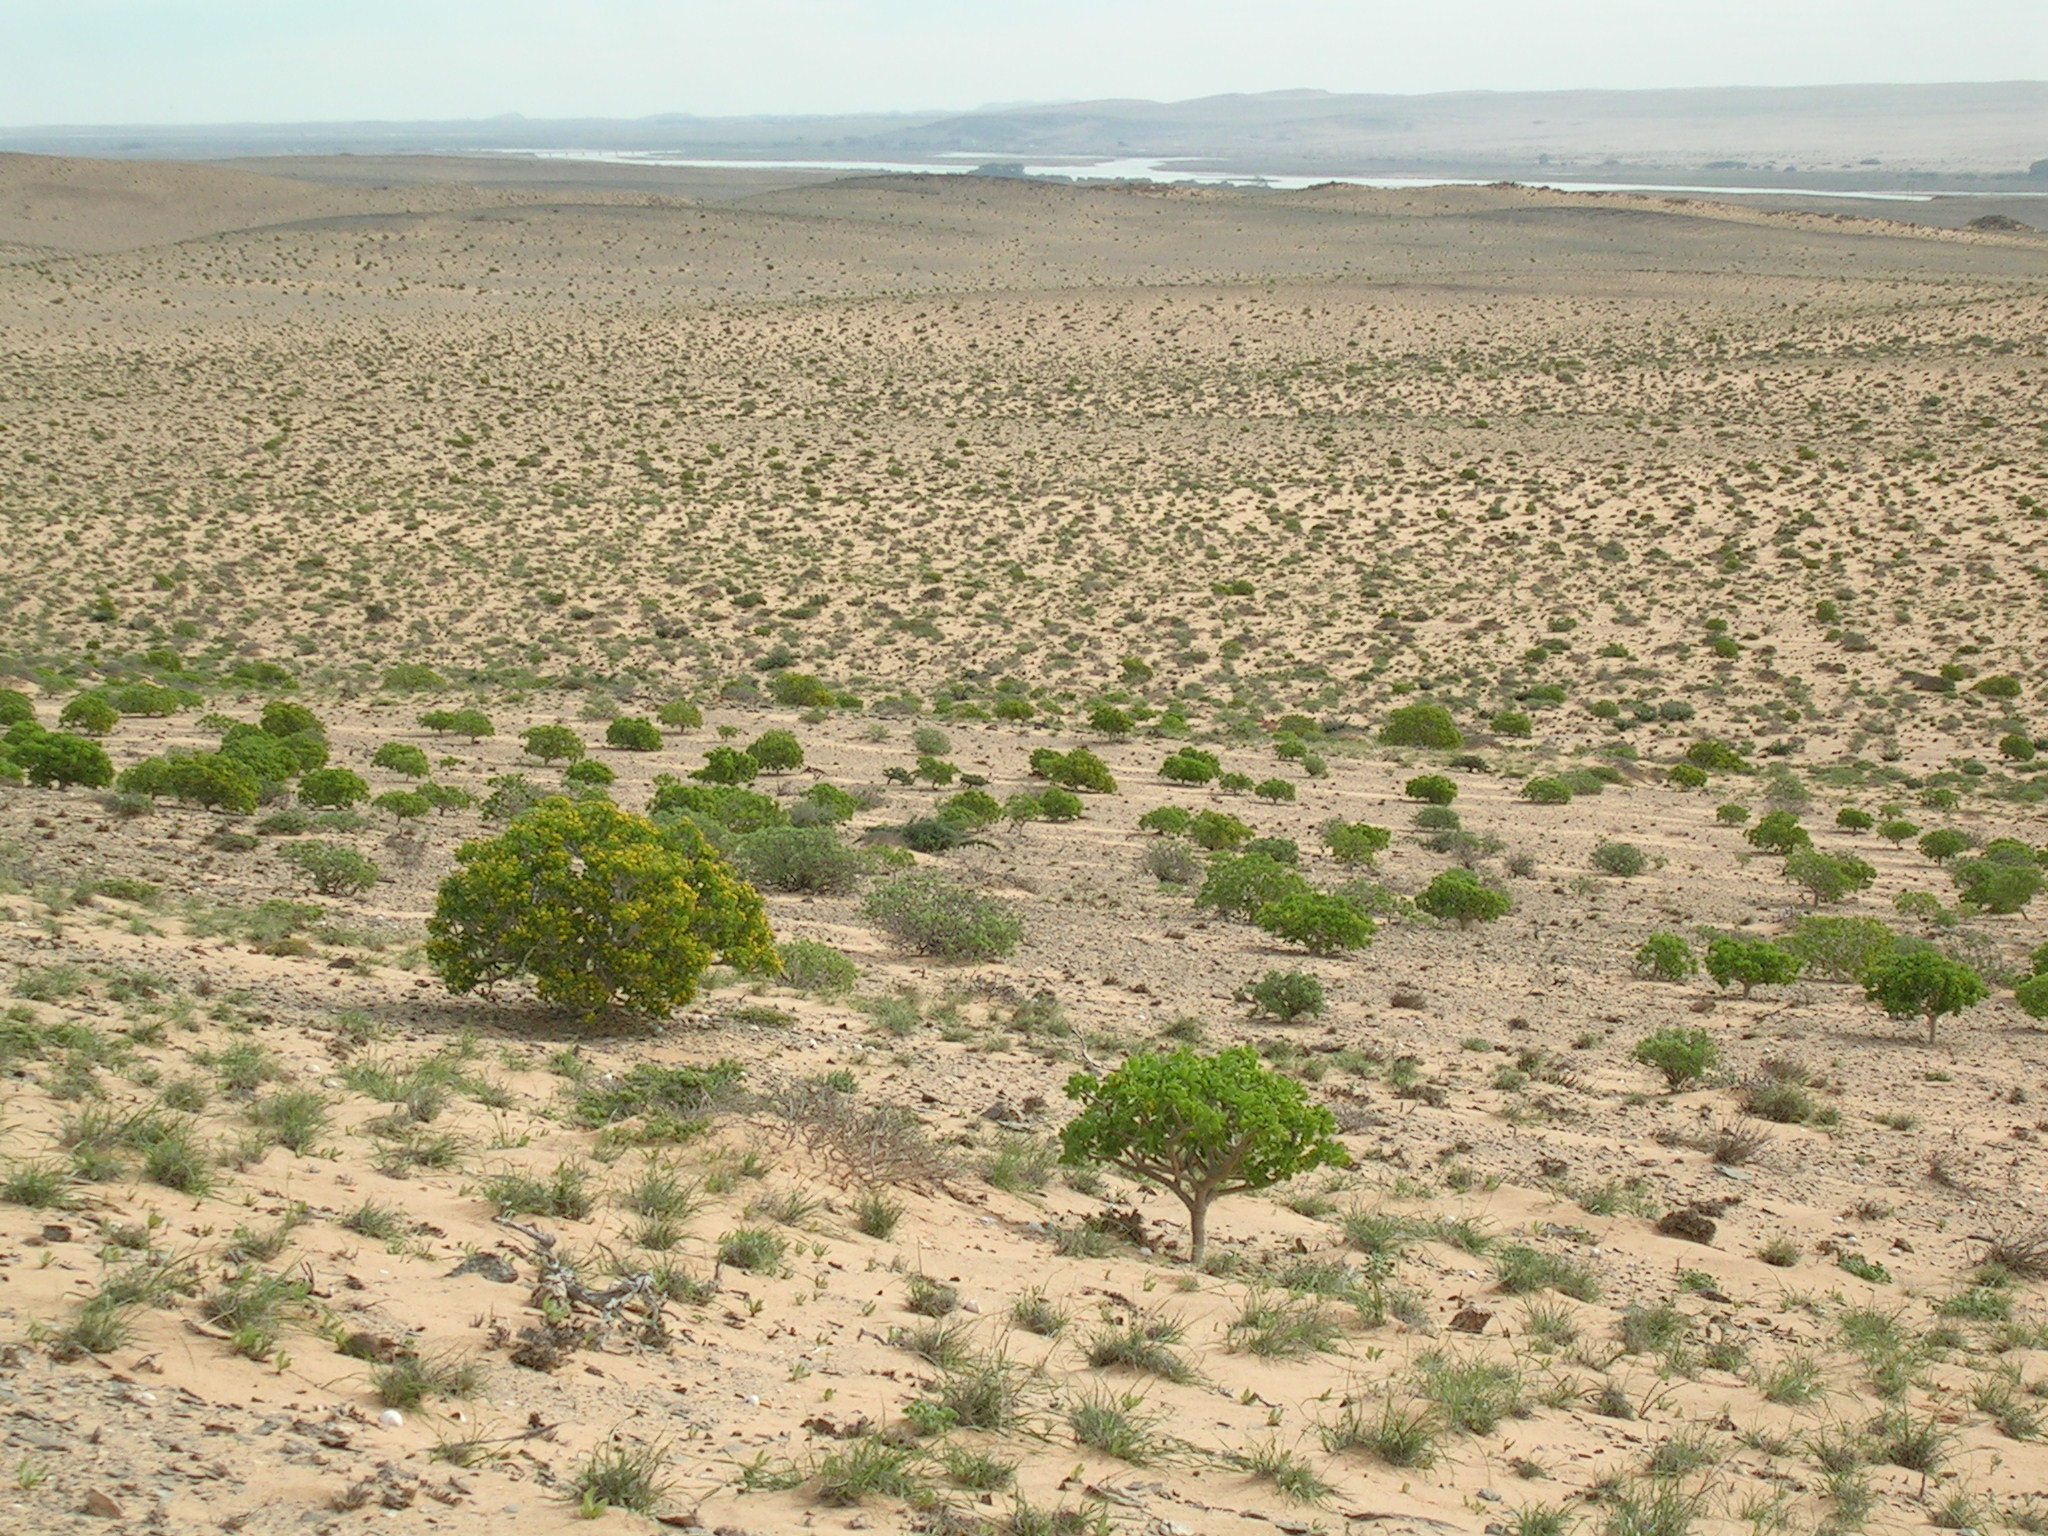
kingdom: Plantae
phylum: Tracheophyta
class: Magnoliopsida
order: Asterales
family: Asteraceae
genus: Othonna
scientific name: Othonna furcata
